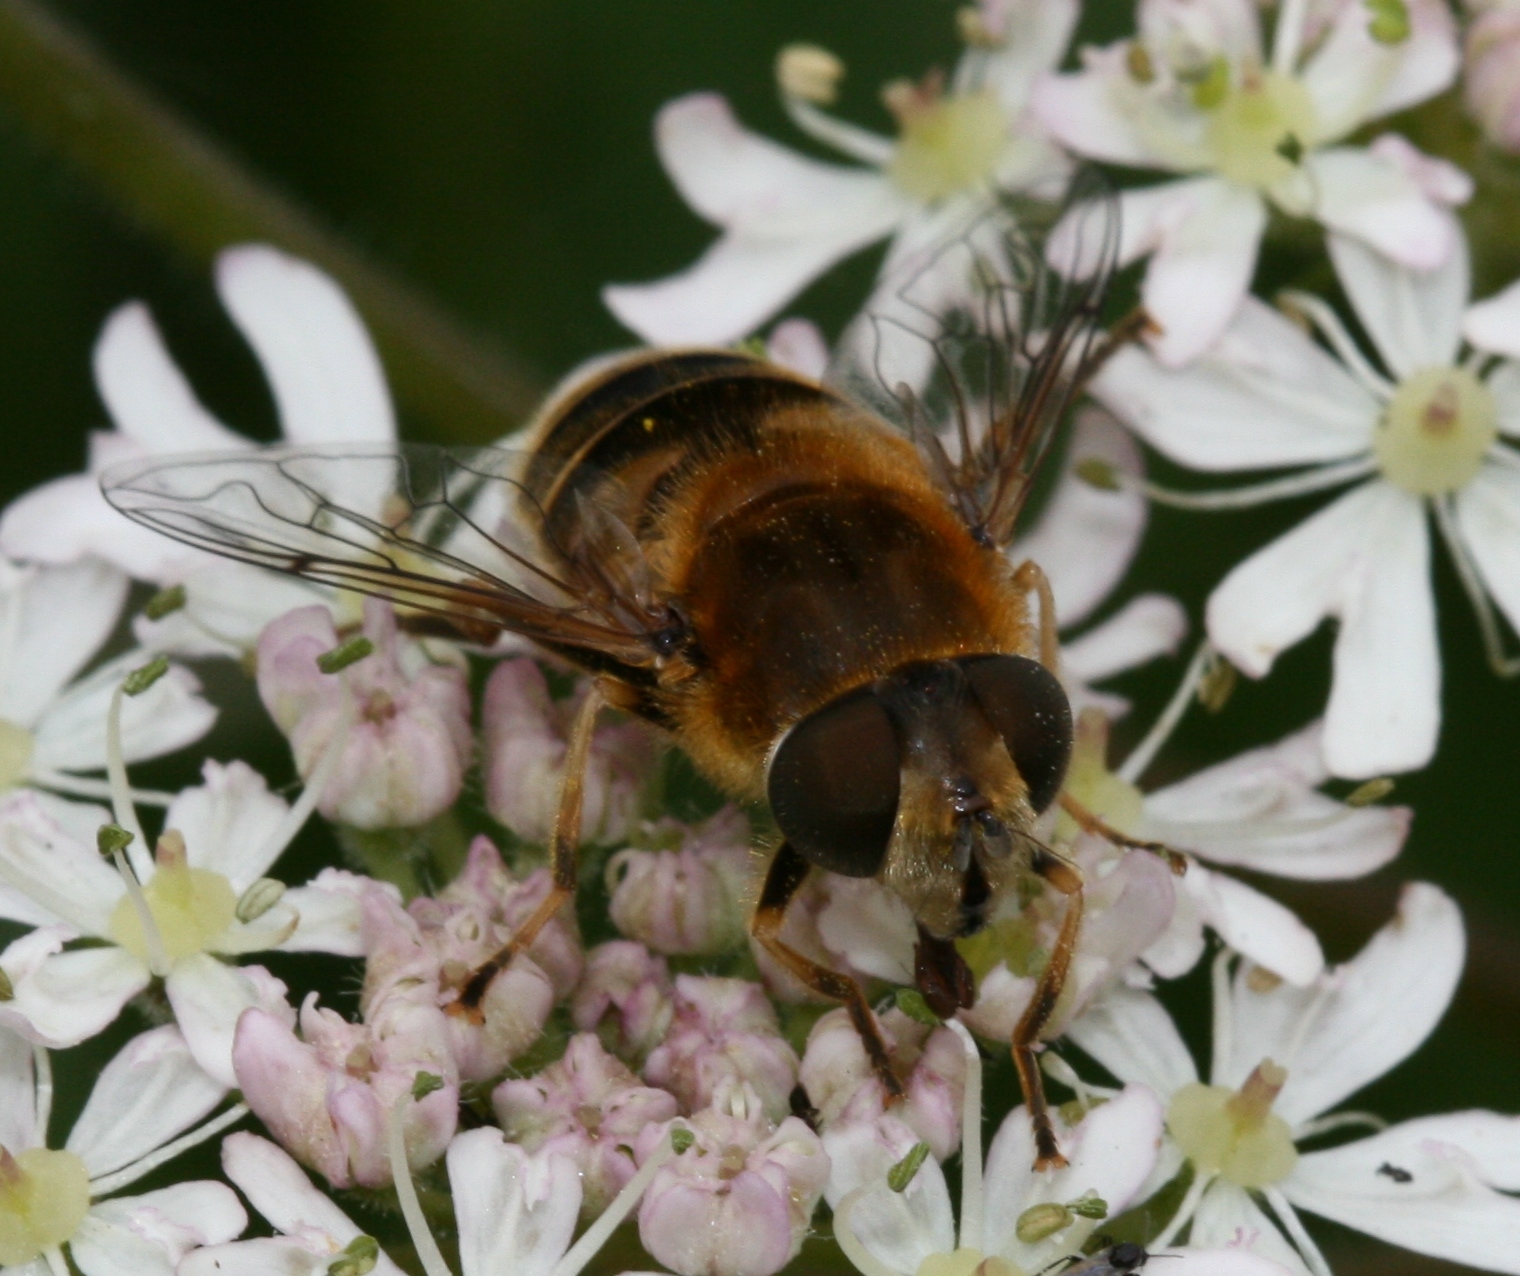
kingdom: Animalia
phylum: Arthropoda
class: Insecta
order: Diptera
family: Syrphidae
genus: Eristalis
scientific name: Eristalis nemorum
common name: Orange-spined drone fly
